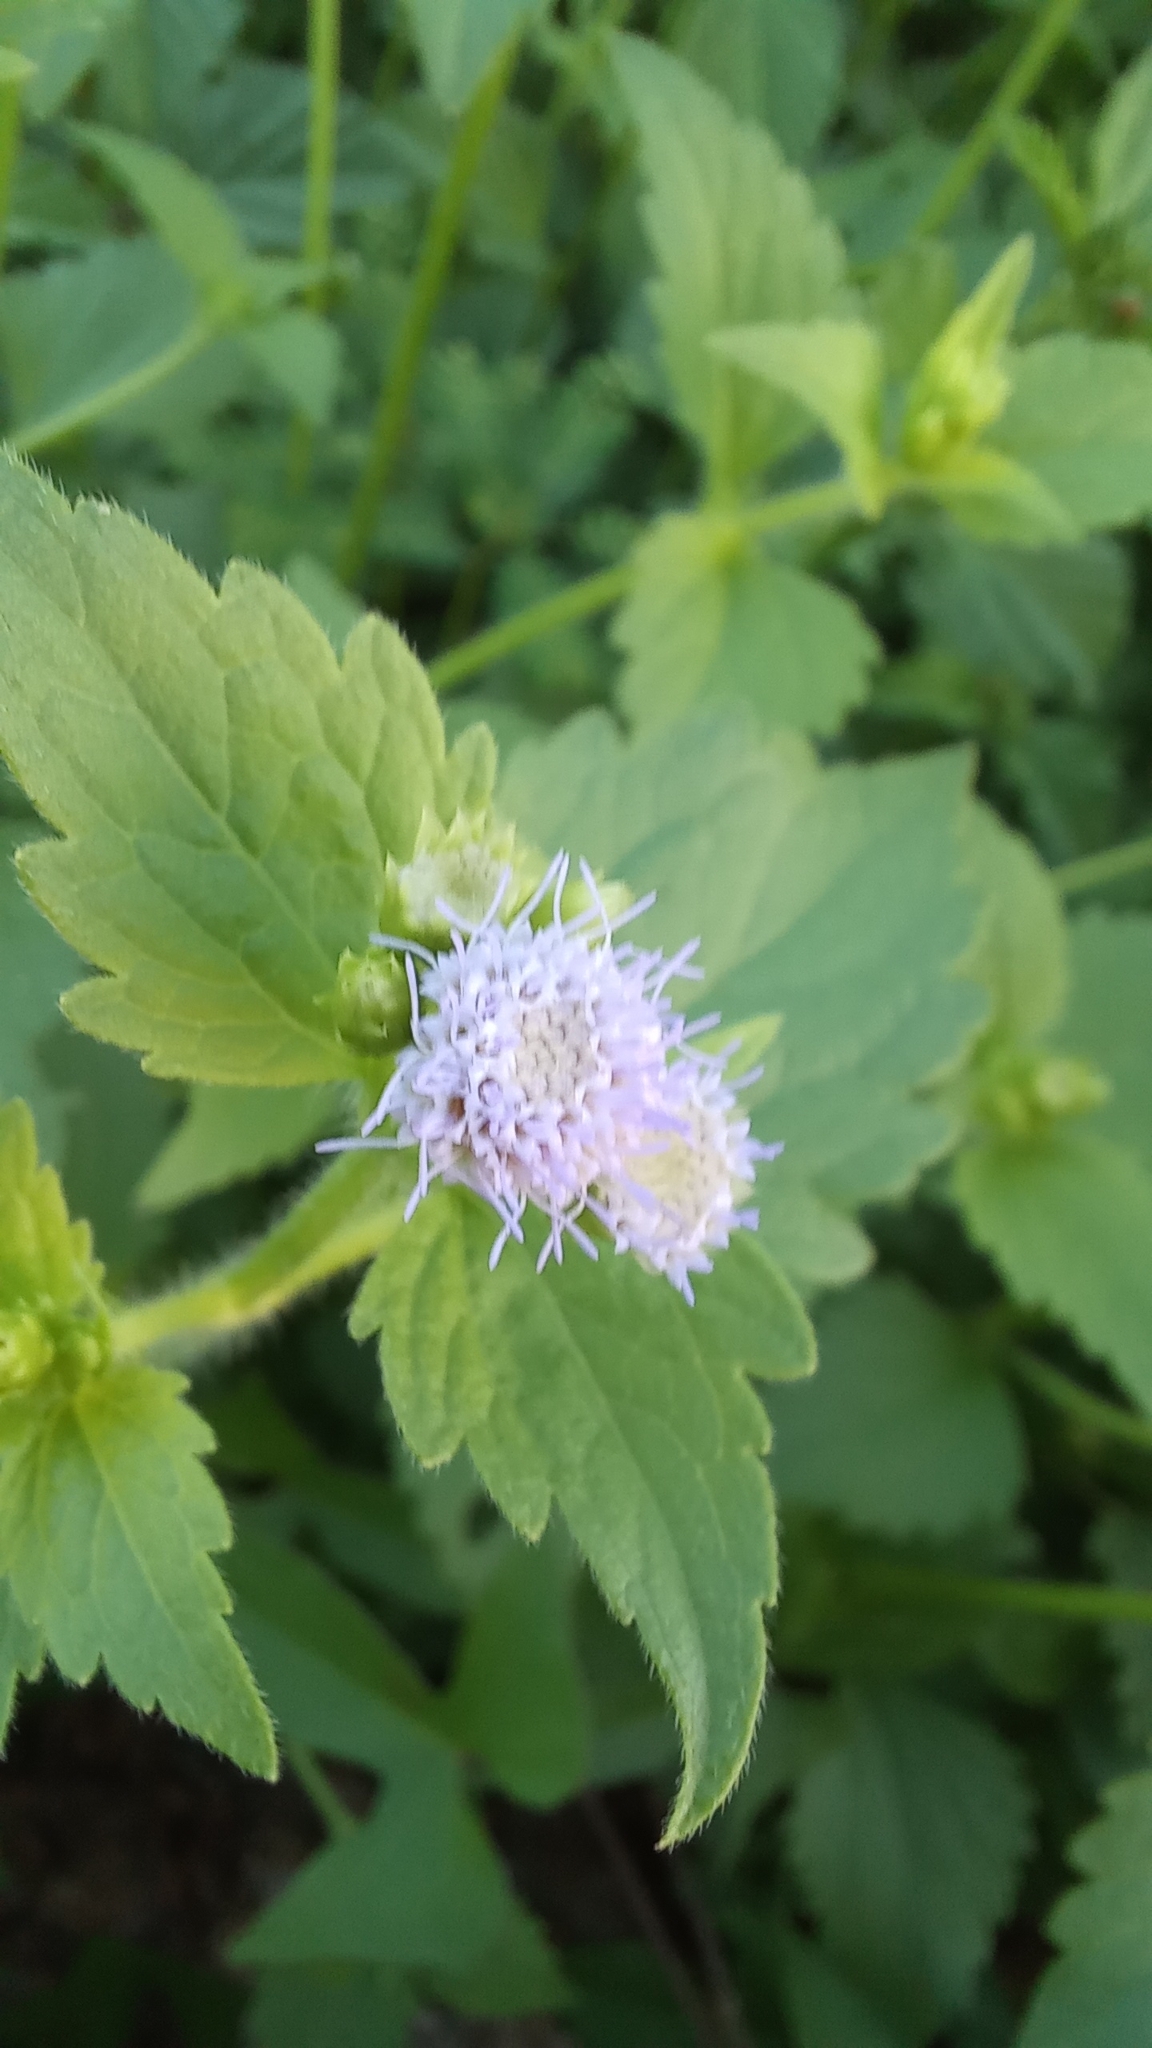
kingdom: Plantae
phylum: Tracheophyta
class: Magnoliopsida
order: Asterales
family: Asteraceae
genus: Praxelis
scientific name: Praxelis clematidea
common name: Praxelis
